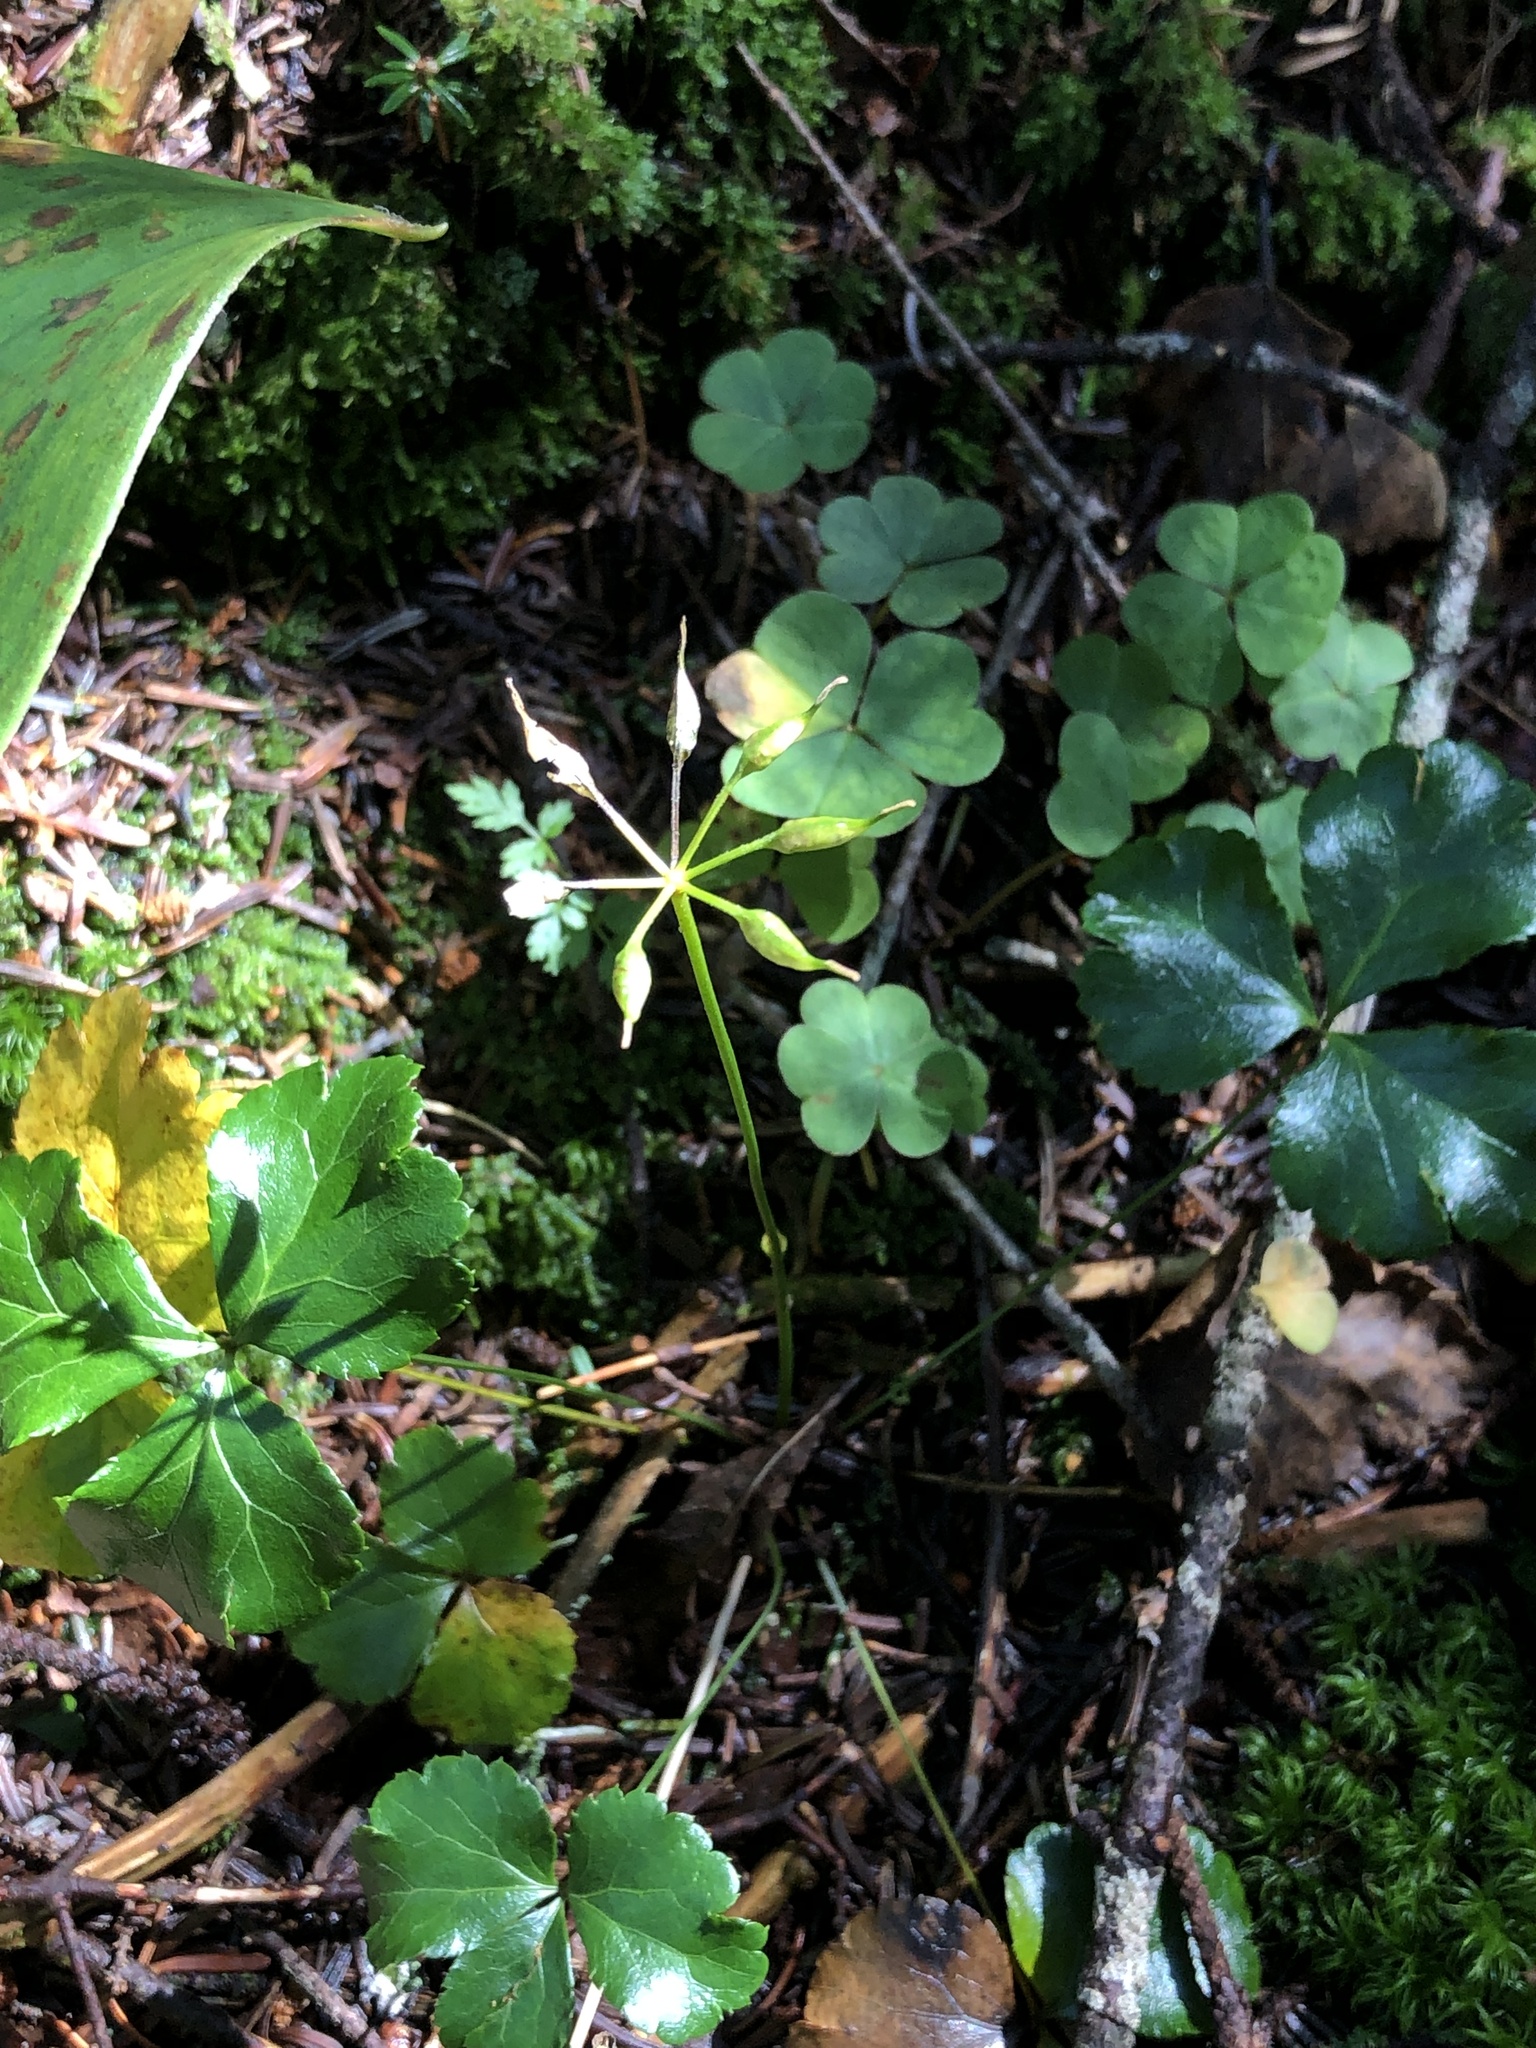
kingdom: Plantae
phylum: Tracheophyta
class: Magnoliopsida
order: Ranunculales
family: Ranunculaceae
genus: Coptis
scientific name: Coptis trifolia
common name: Canker-root
